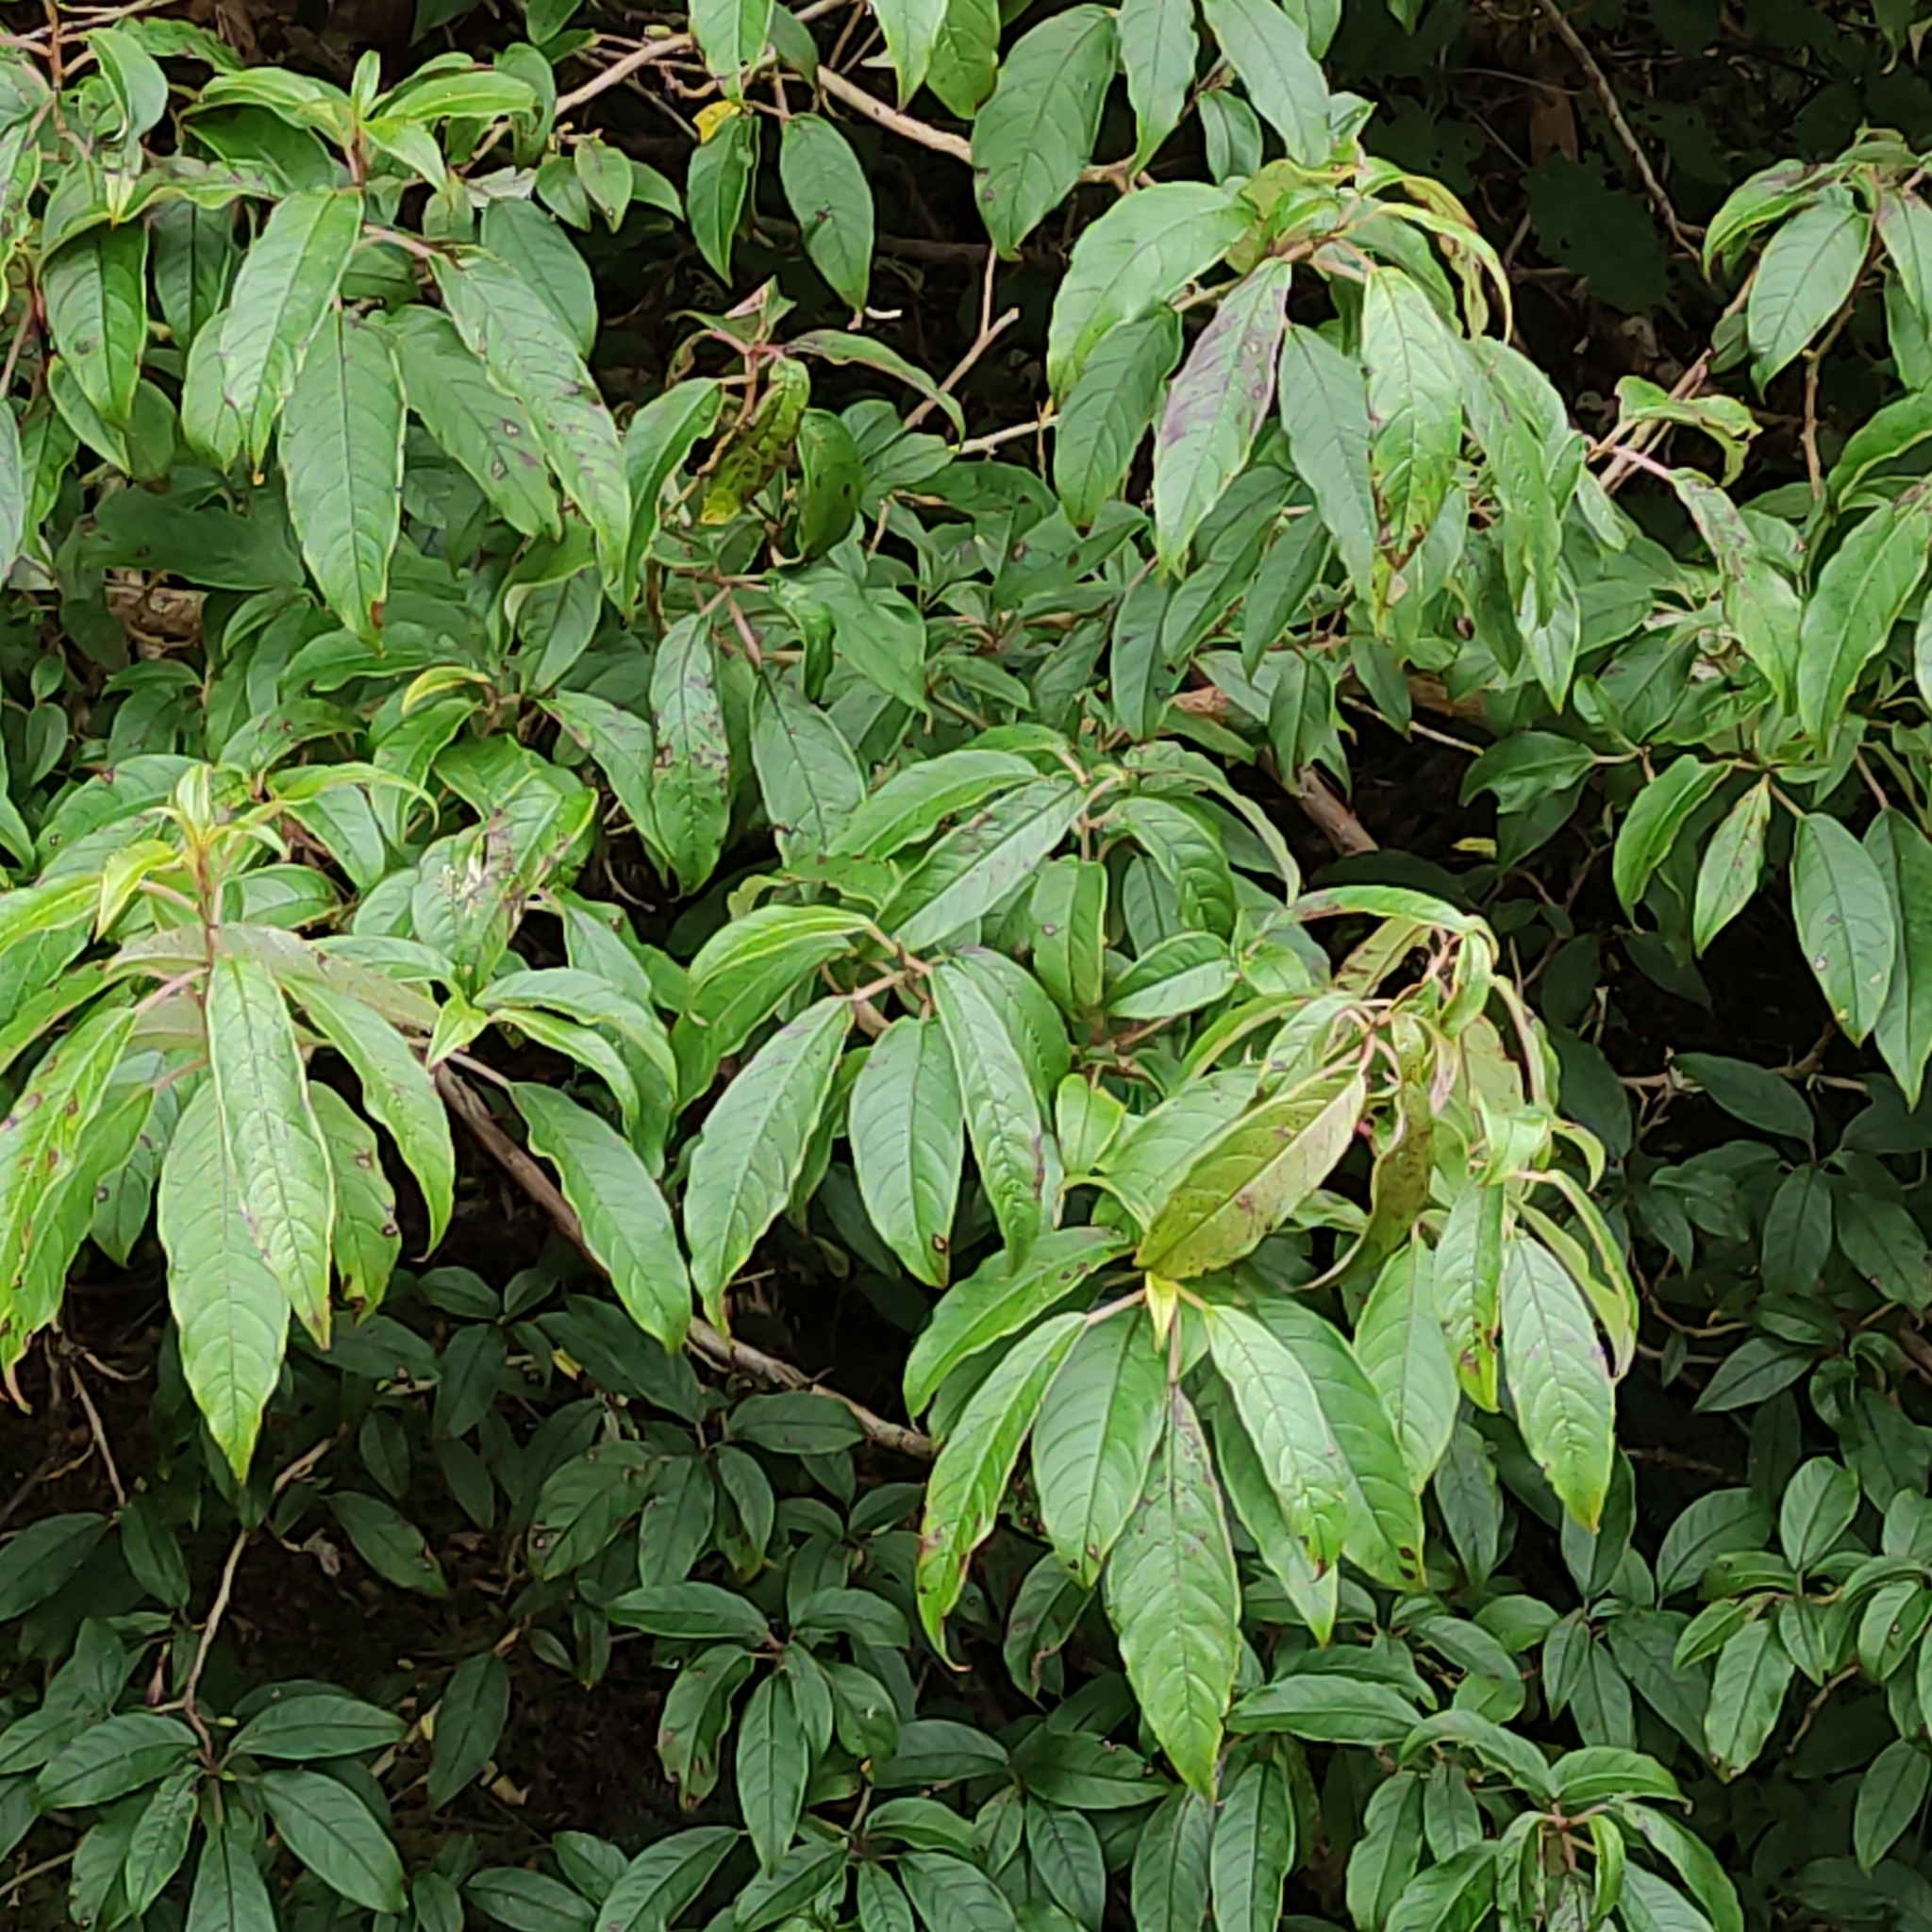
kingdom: Plantae
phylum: Tracheophyta
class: Magnoliopsida
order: Myrtales
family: Onagraceae
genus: Fuchsia
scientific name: Fuchsia excorticata
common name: Tree fuchsia
